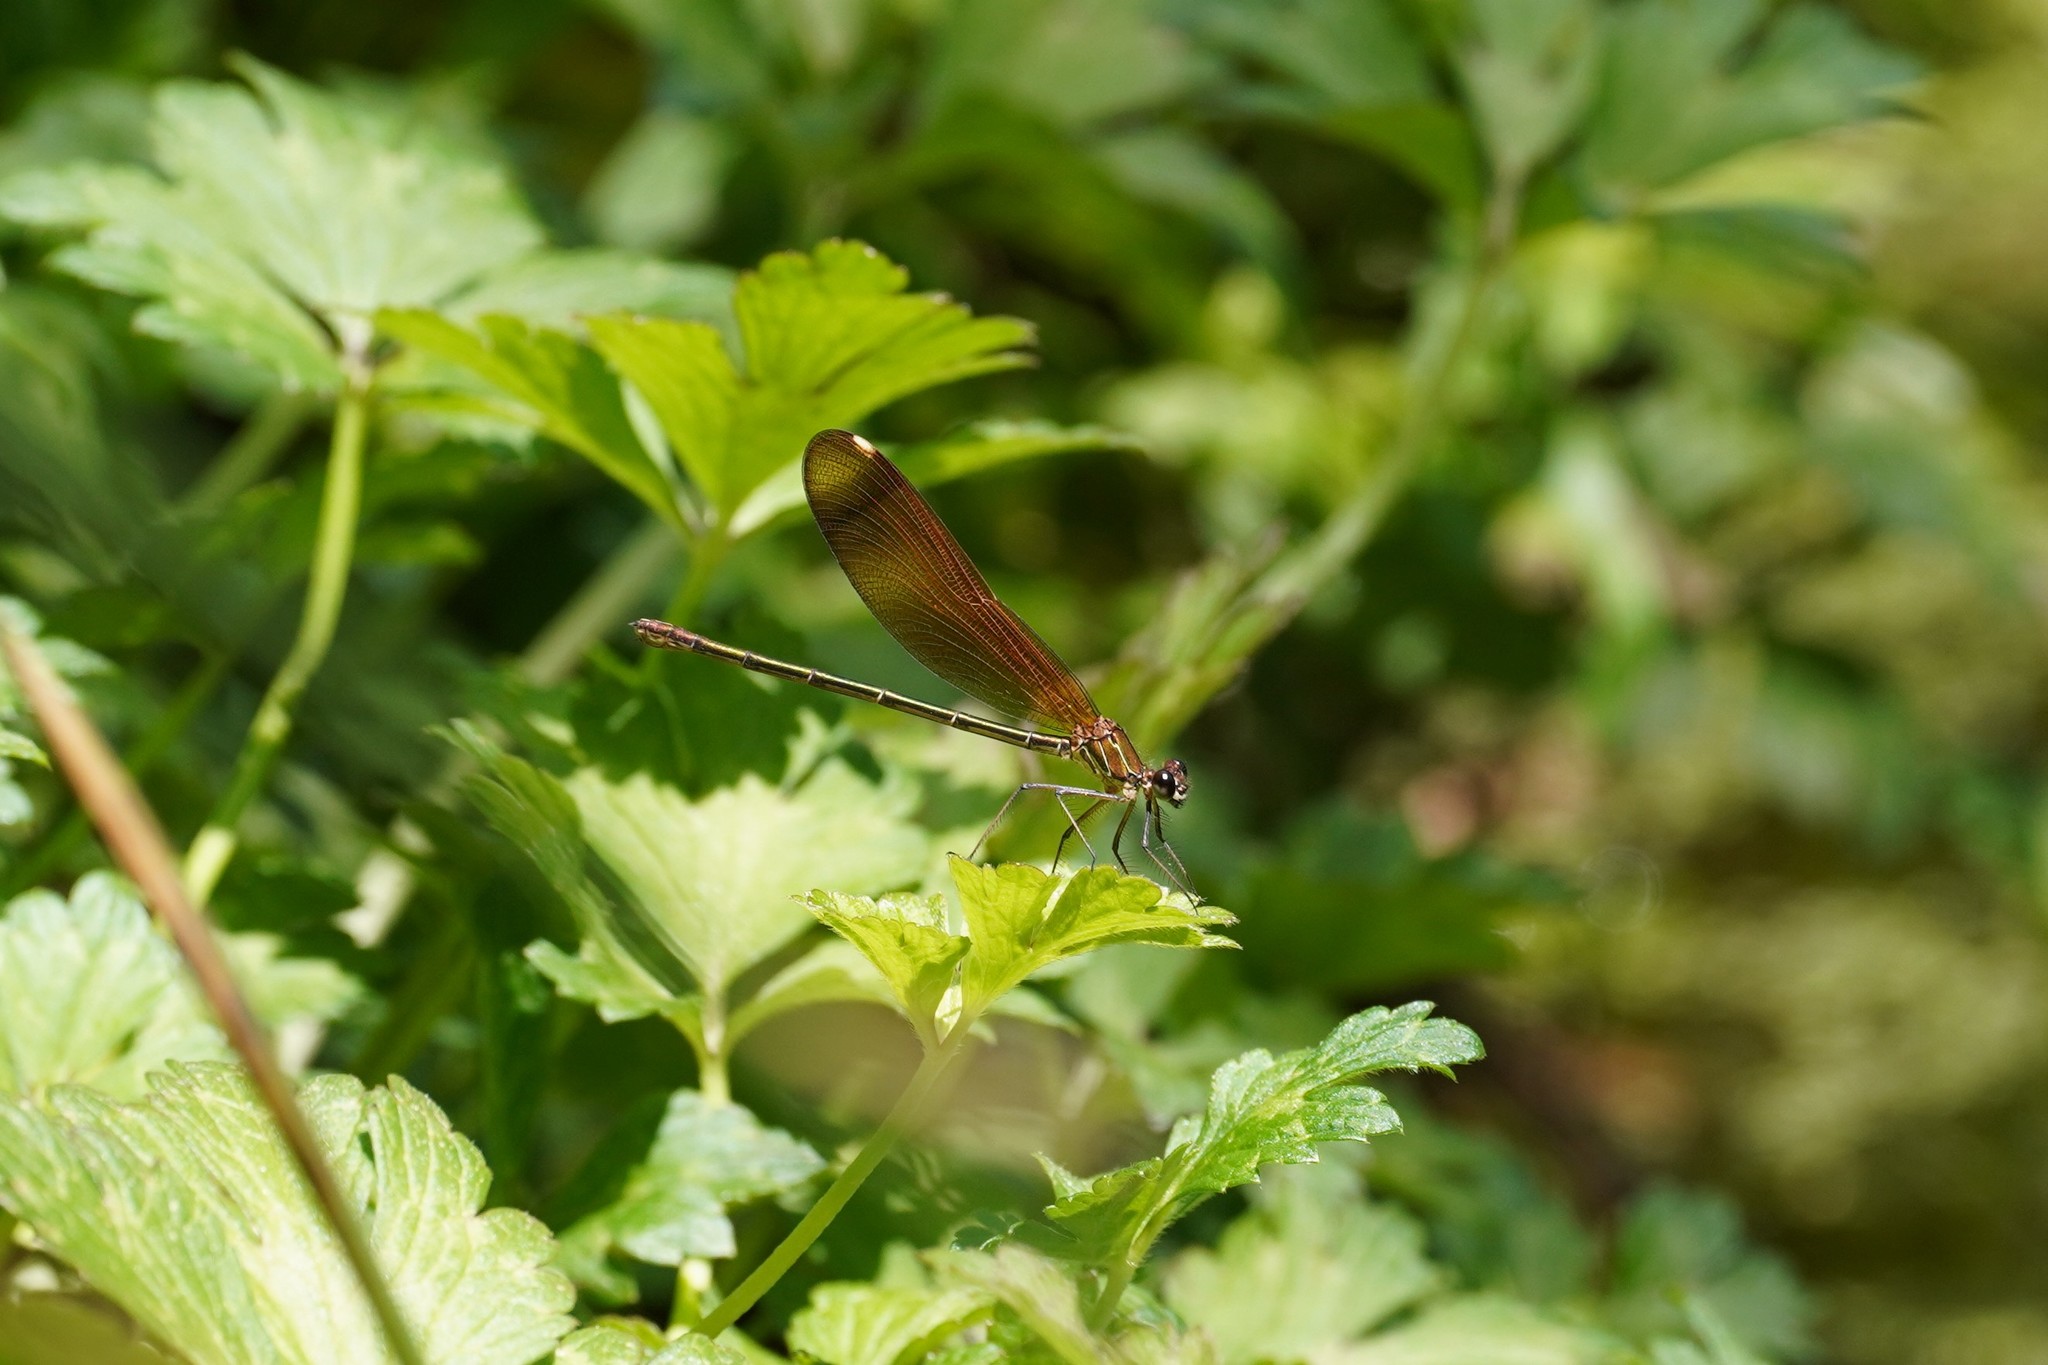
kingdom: Animalia
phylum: Arthropoda
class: Insecta
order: Odonata
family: Calopterygidae
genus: Calopteryx
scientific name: Calopteryx haemorrhoidalis
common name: Copper demoiselle
